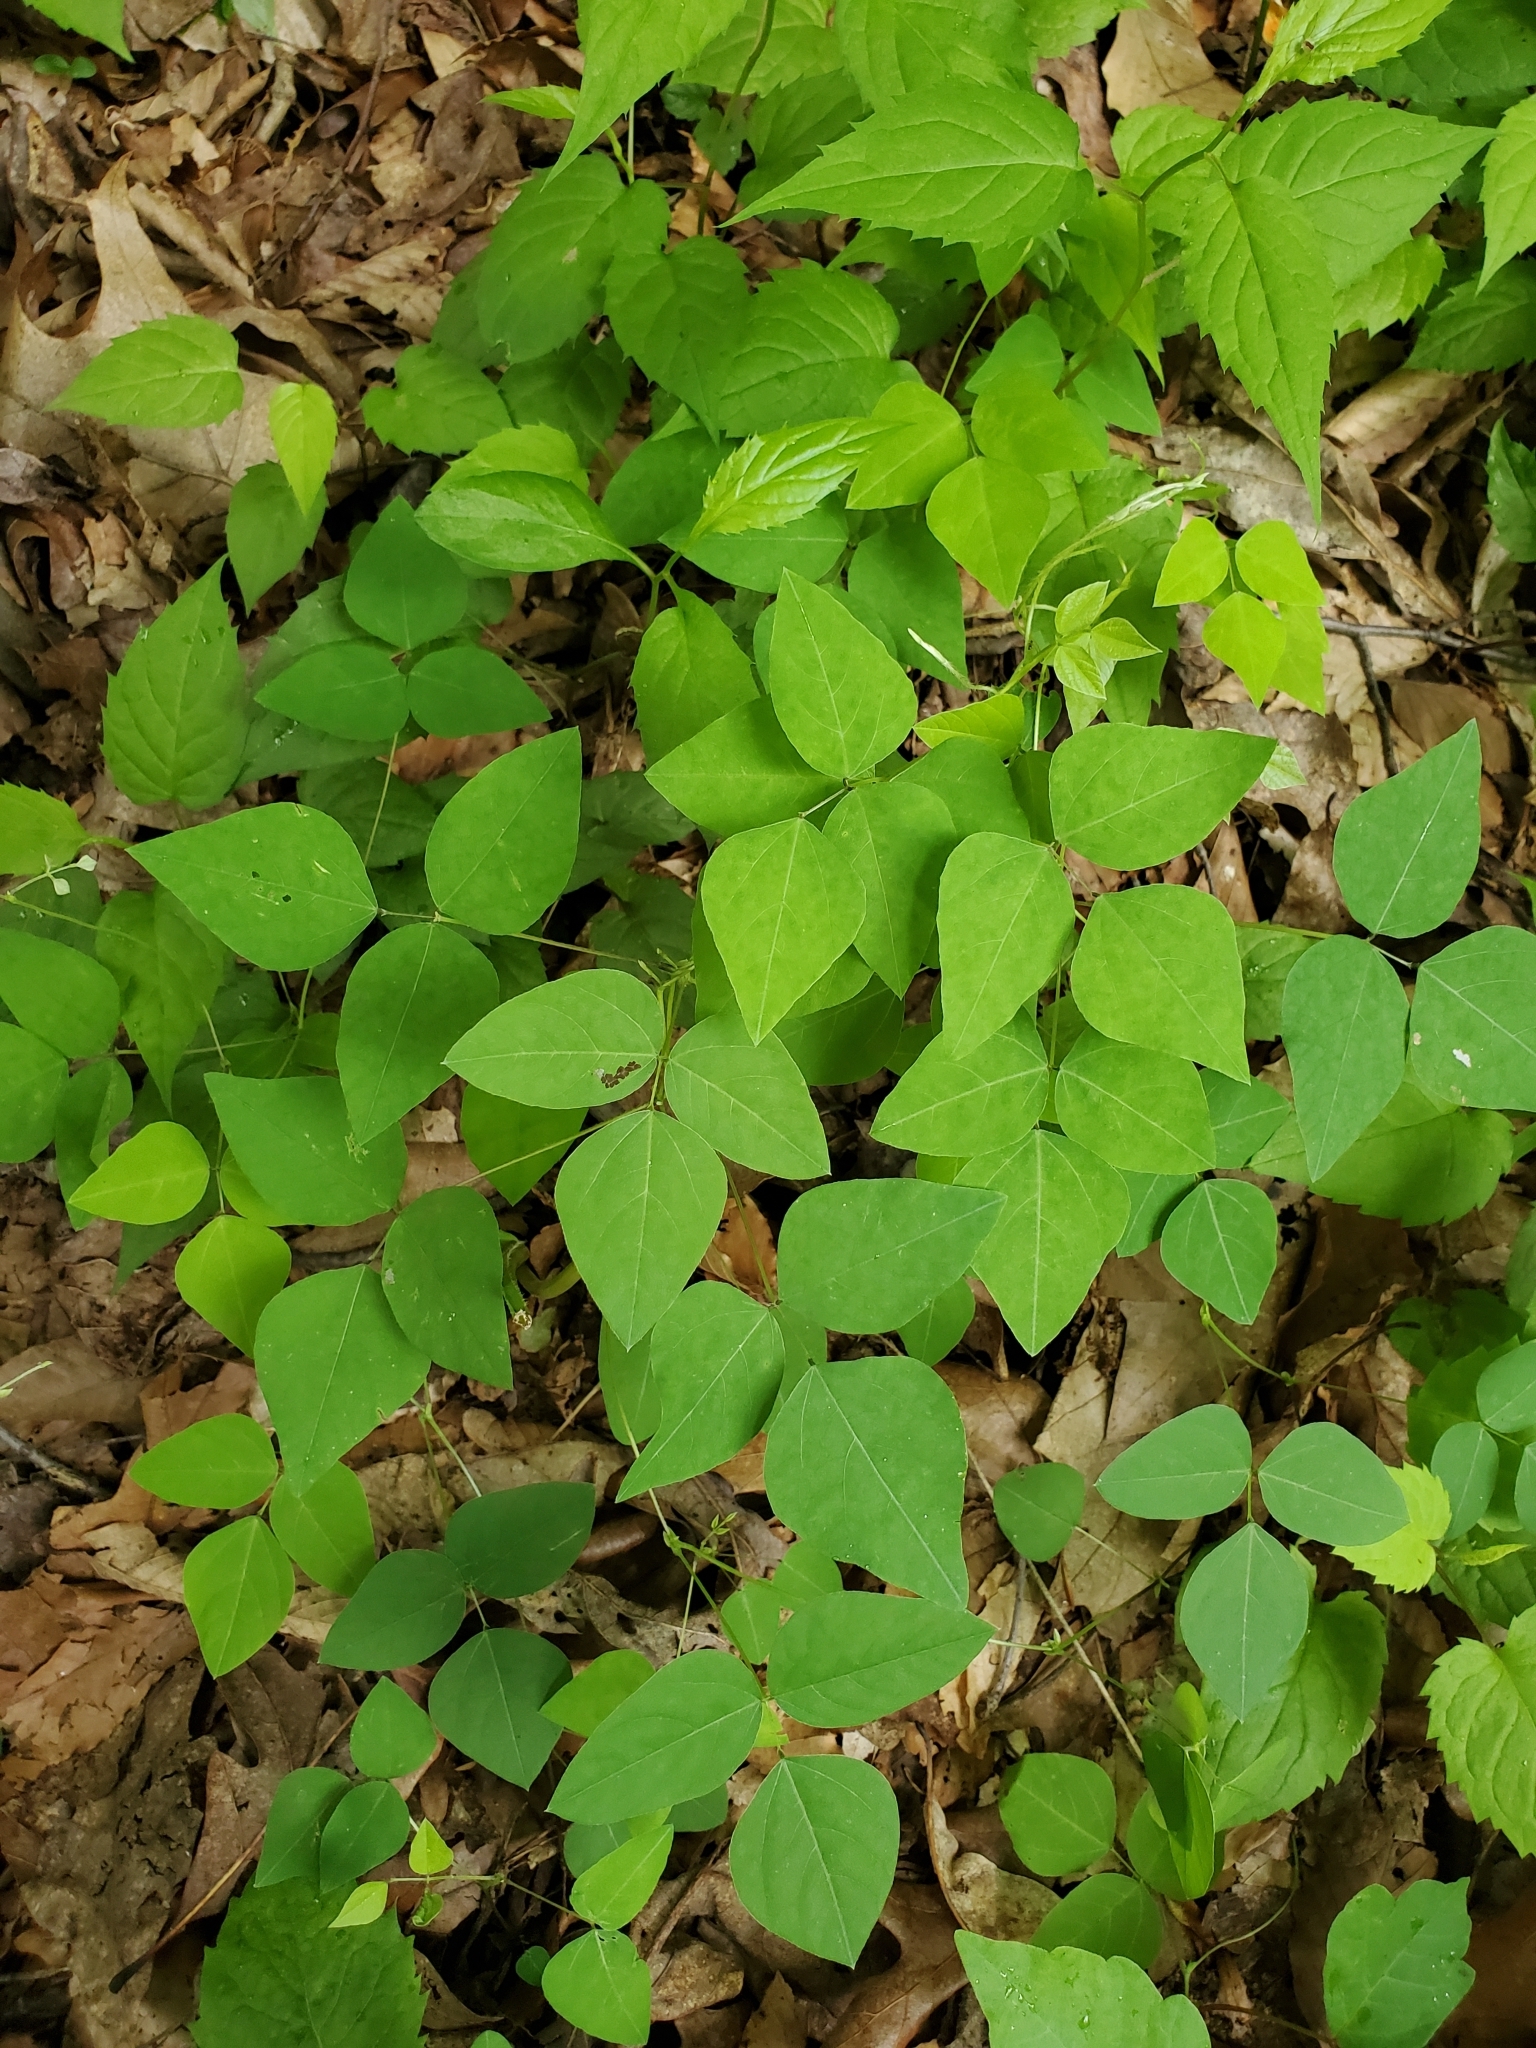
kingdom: Plantae
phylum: Tracheophyta
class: Magnoliopsida
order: Fabales
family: Fabaceae
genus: Amphicarpaea
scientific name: Amphicarpaea bracteata
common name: American hog peanut
